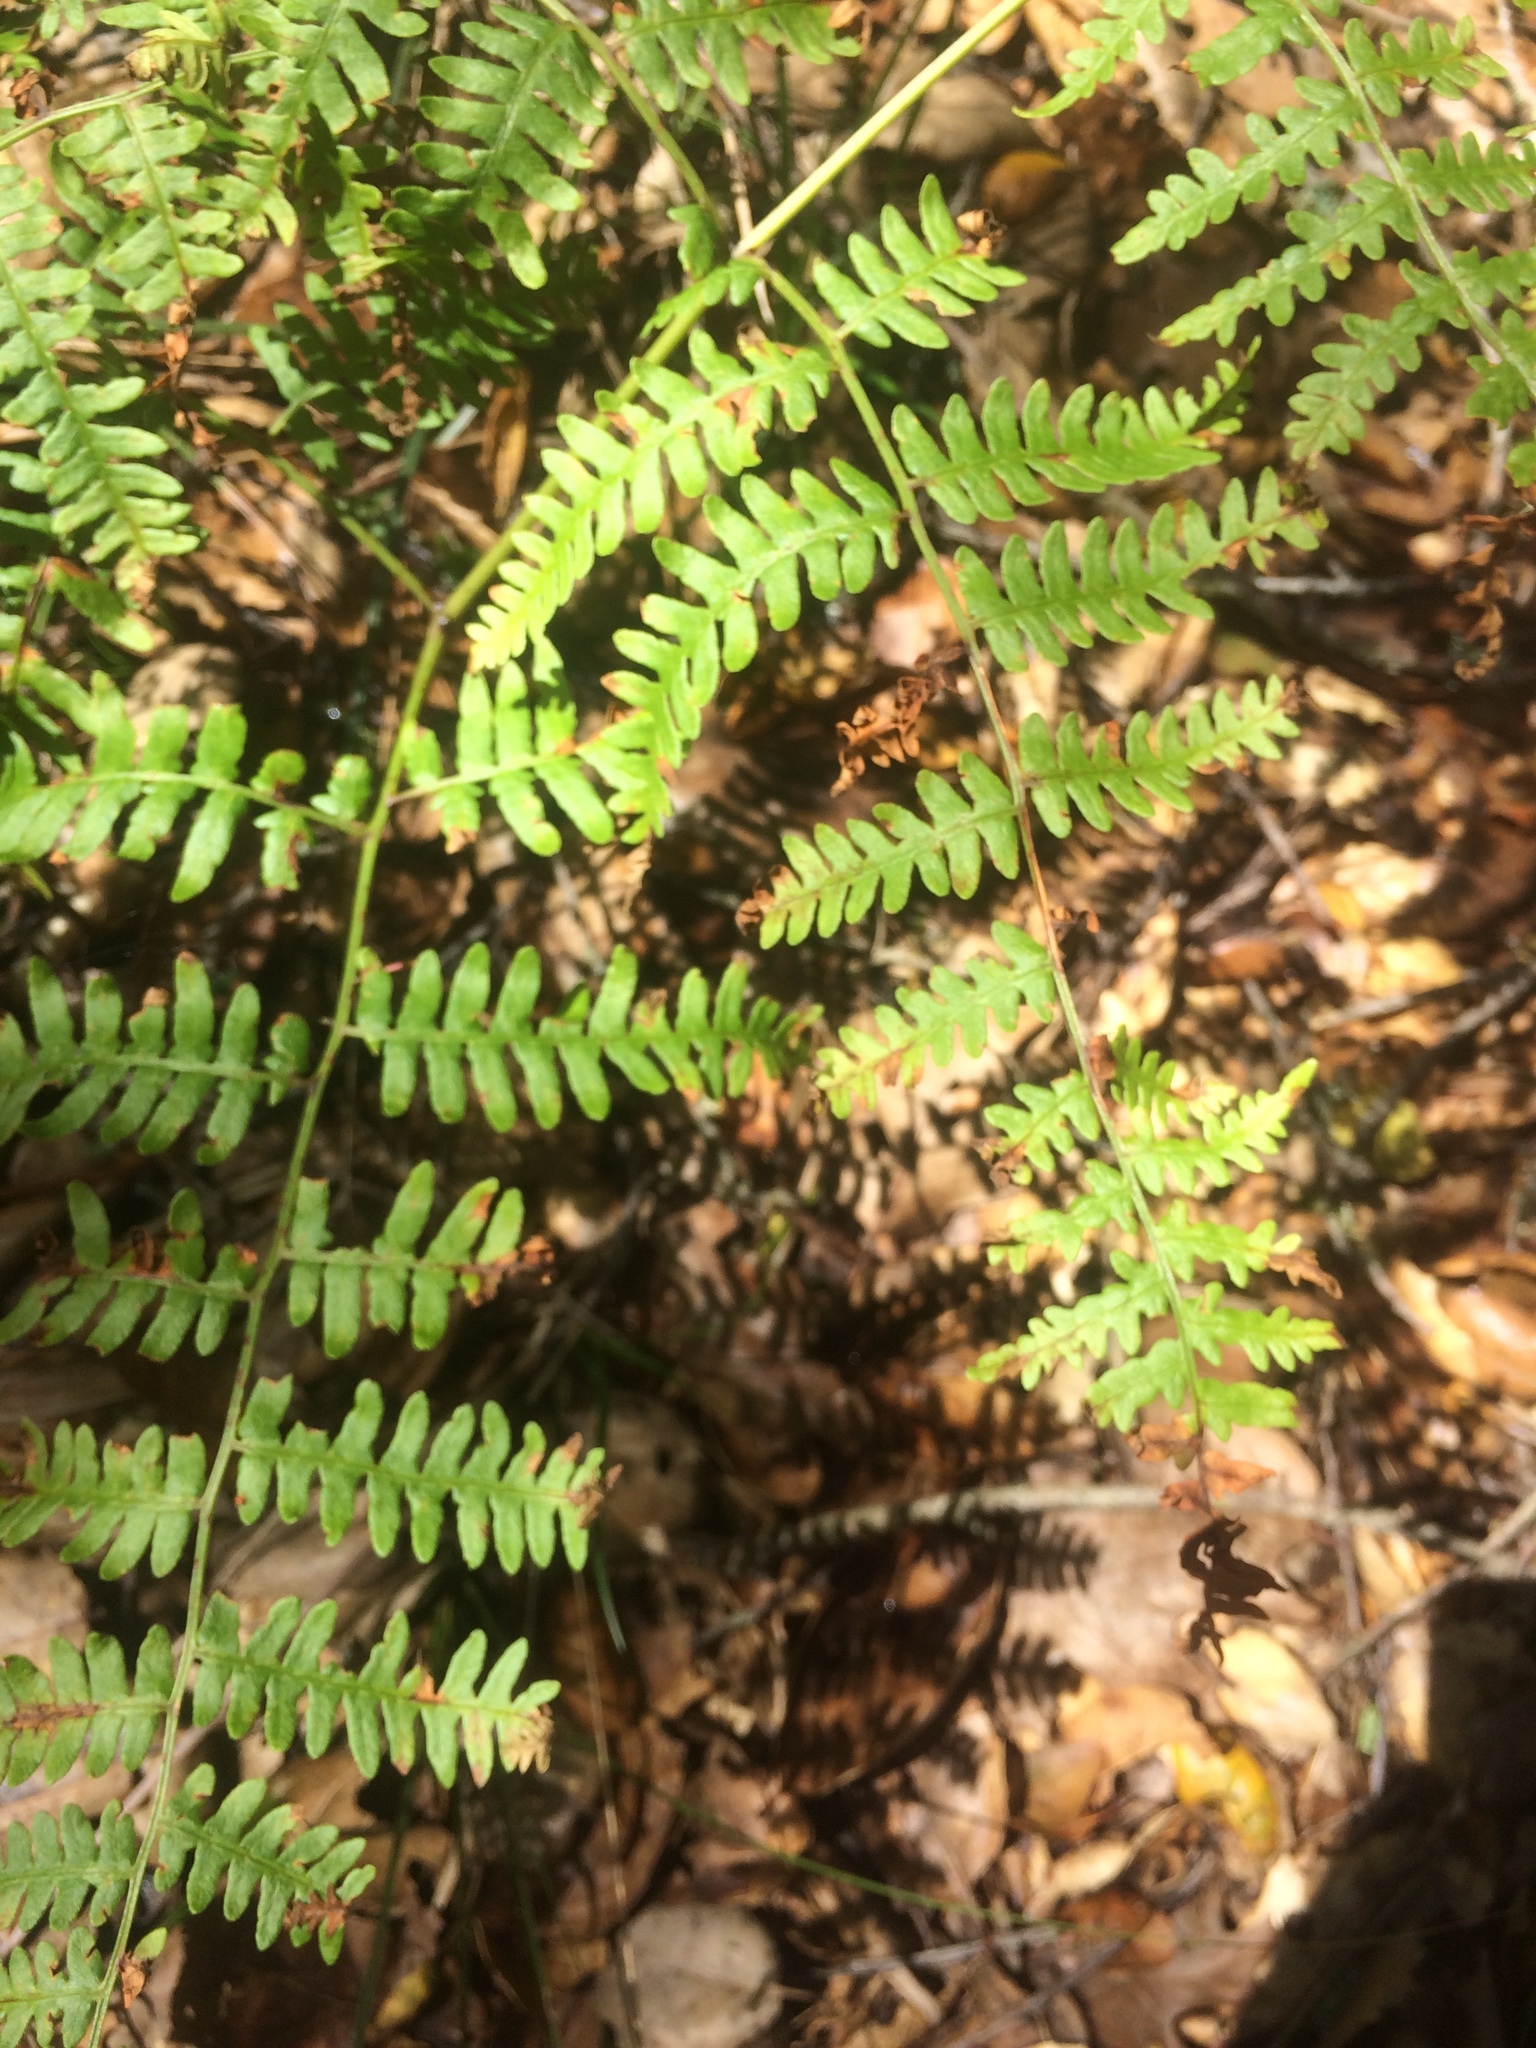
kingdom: Plantae
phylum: Tracheophyta
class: Polypodiopsida
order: Polypodiales
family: Dennstaedtiaceae
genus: Pteridium
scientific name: Pteridium aquilinum
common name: Bracken
